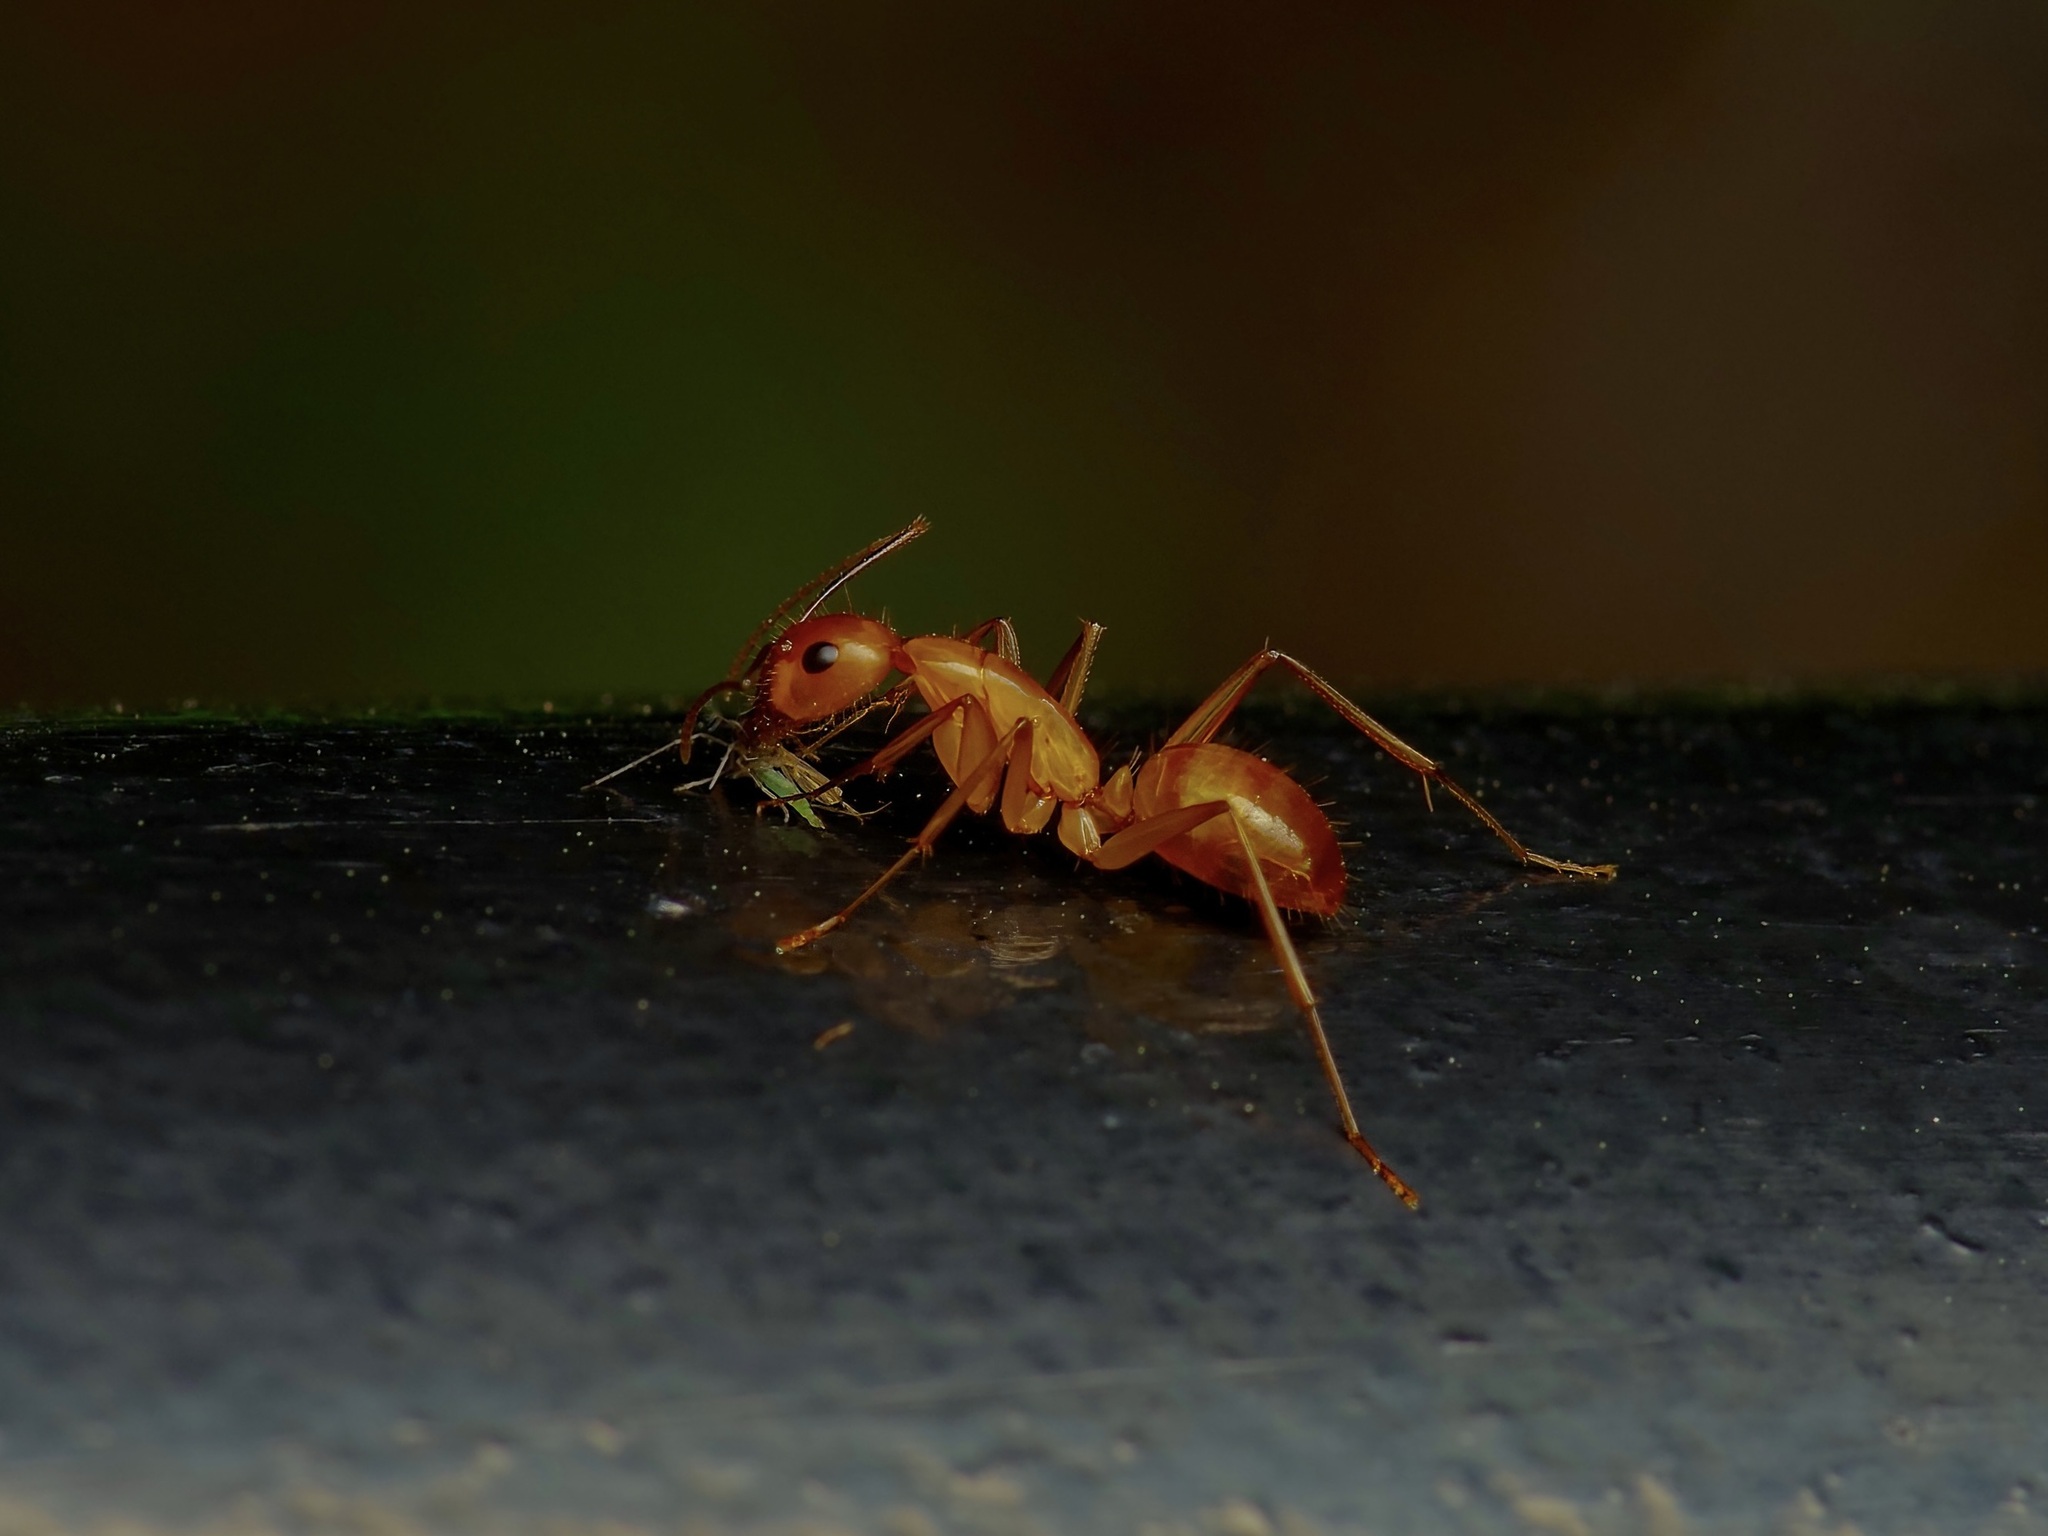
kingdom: Animalia
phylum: Arthropoda
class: Insecta
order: Hymenoptera
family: Formicidae
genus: Camponotus
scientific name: Camponotus festinatus
